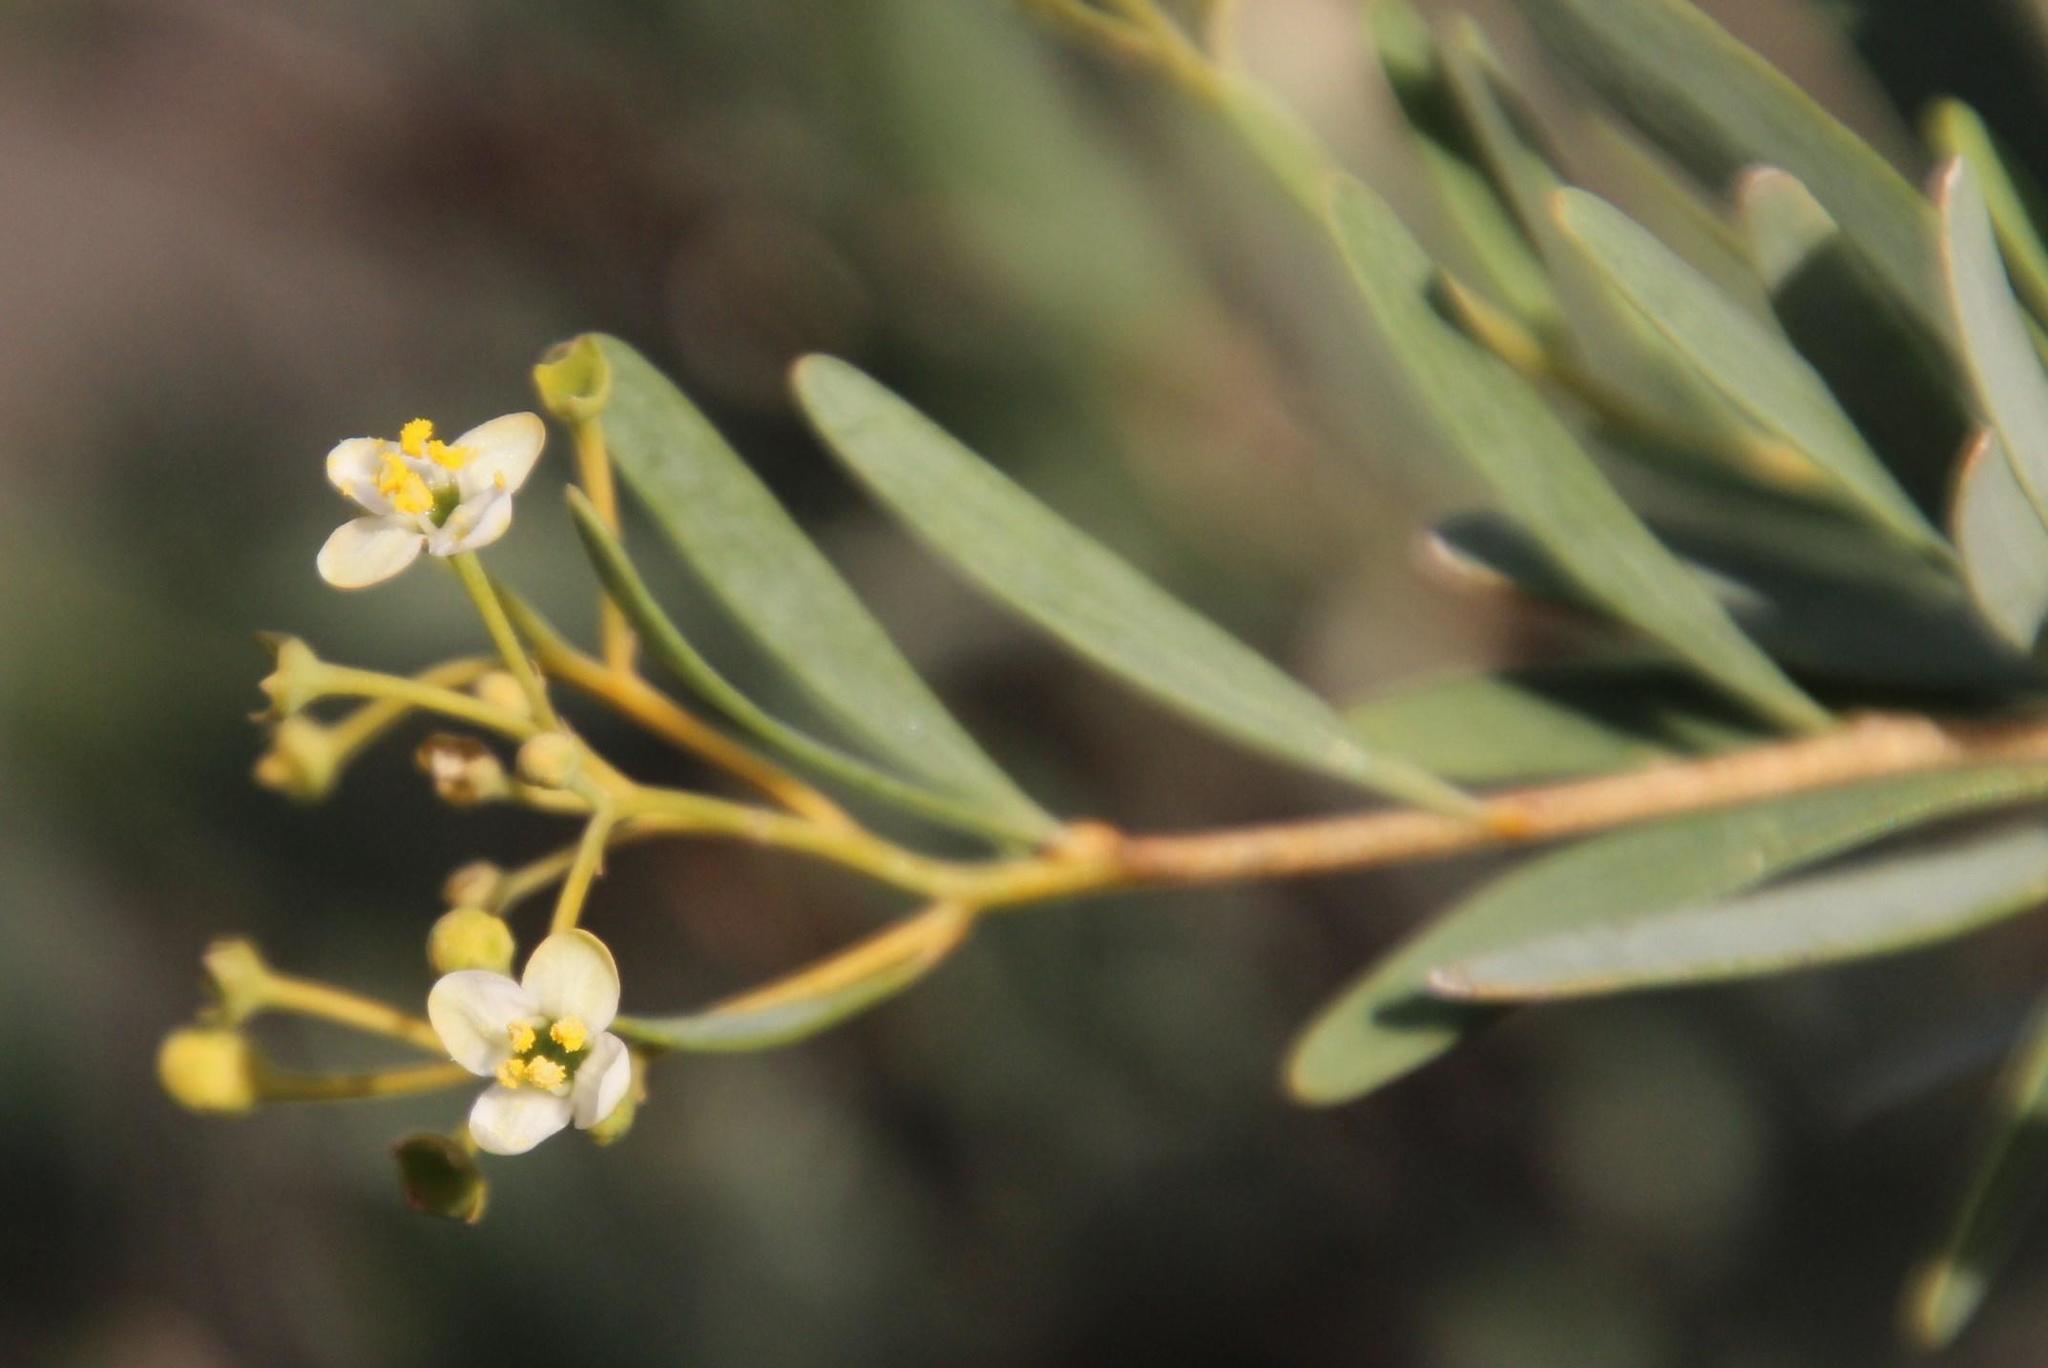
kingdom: Plantae
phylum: Tracheophyta
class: Magnoliopsida
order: Solanales
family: Montiniaceae
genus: Montinia
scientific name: Montinia caryophyllacea
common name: Wild clove-bush
